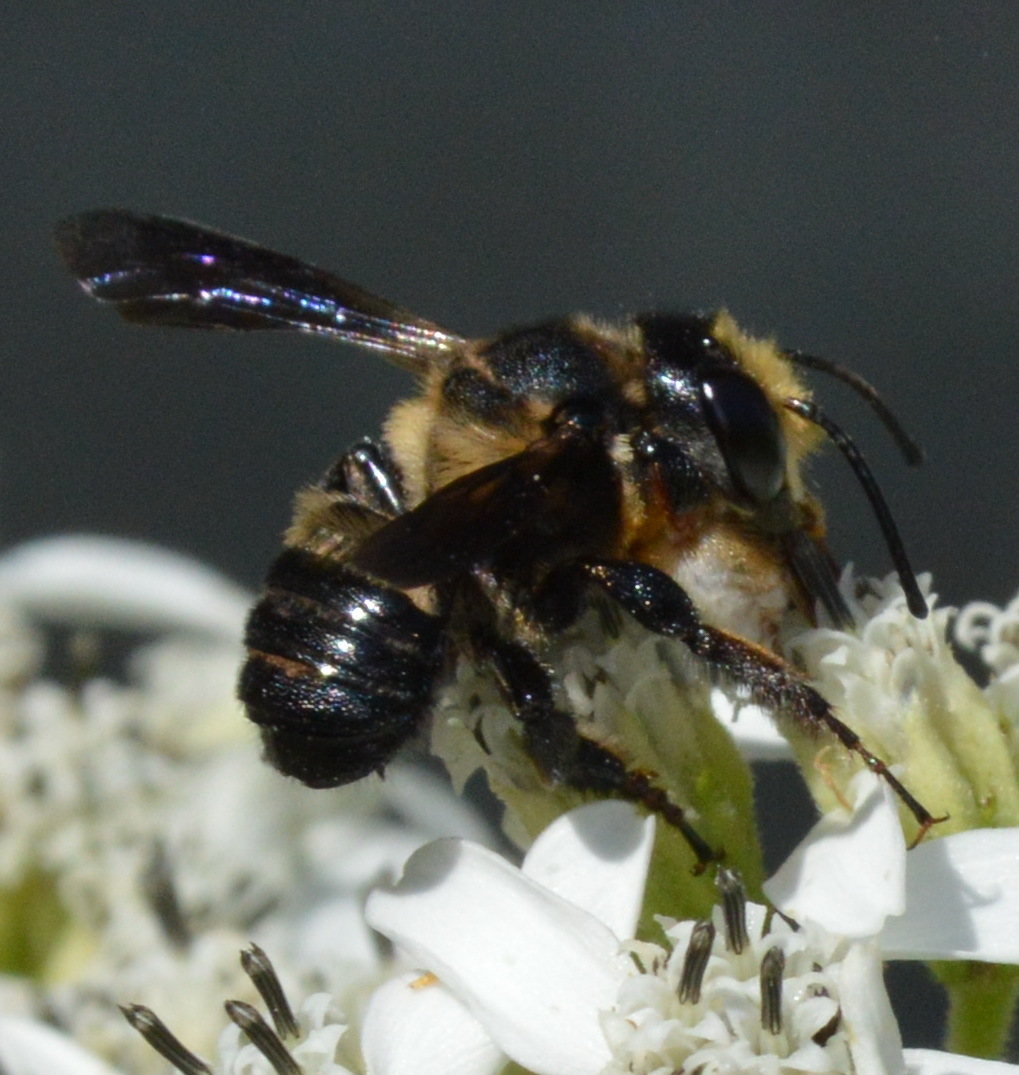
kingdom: Animalia
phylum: Arthropoda
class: Insecta
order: Hymenoptera
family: Megachilidae
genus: Megachile
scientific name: Megachile xylocopoides
